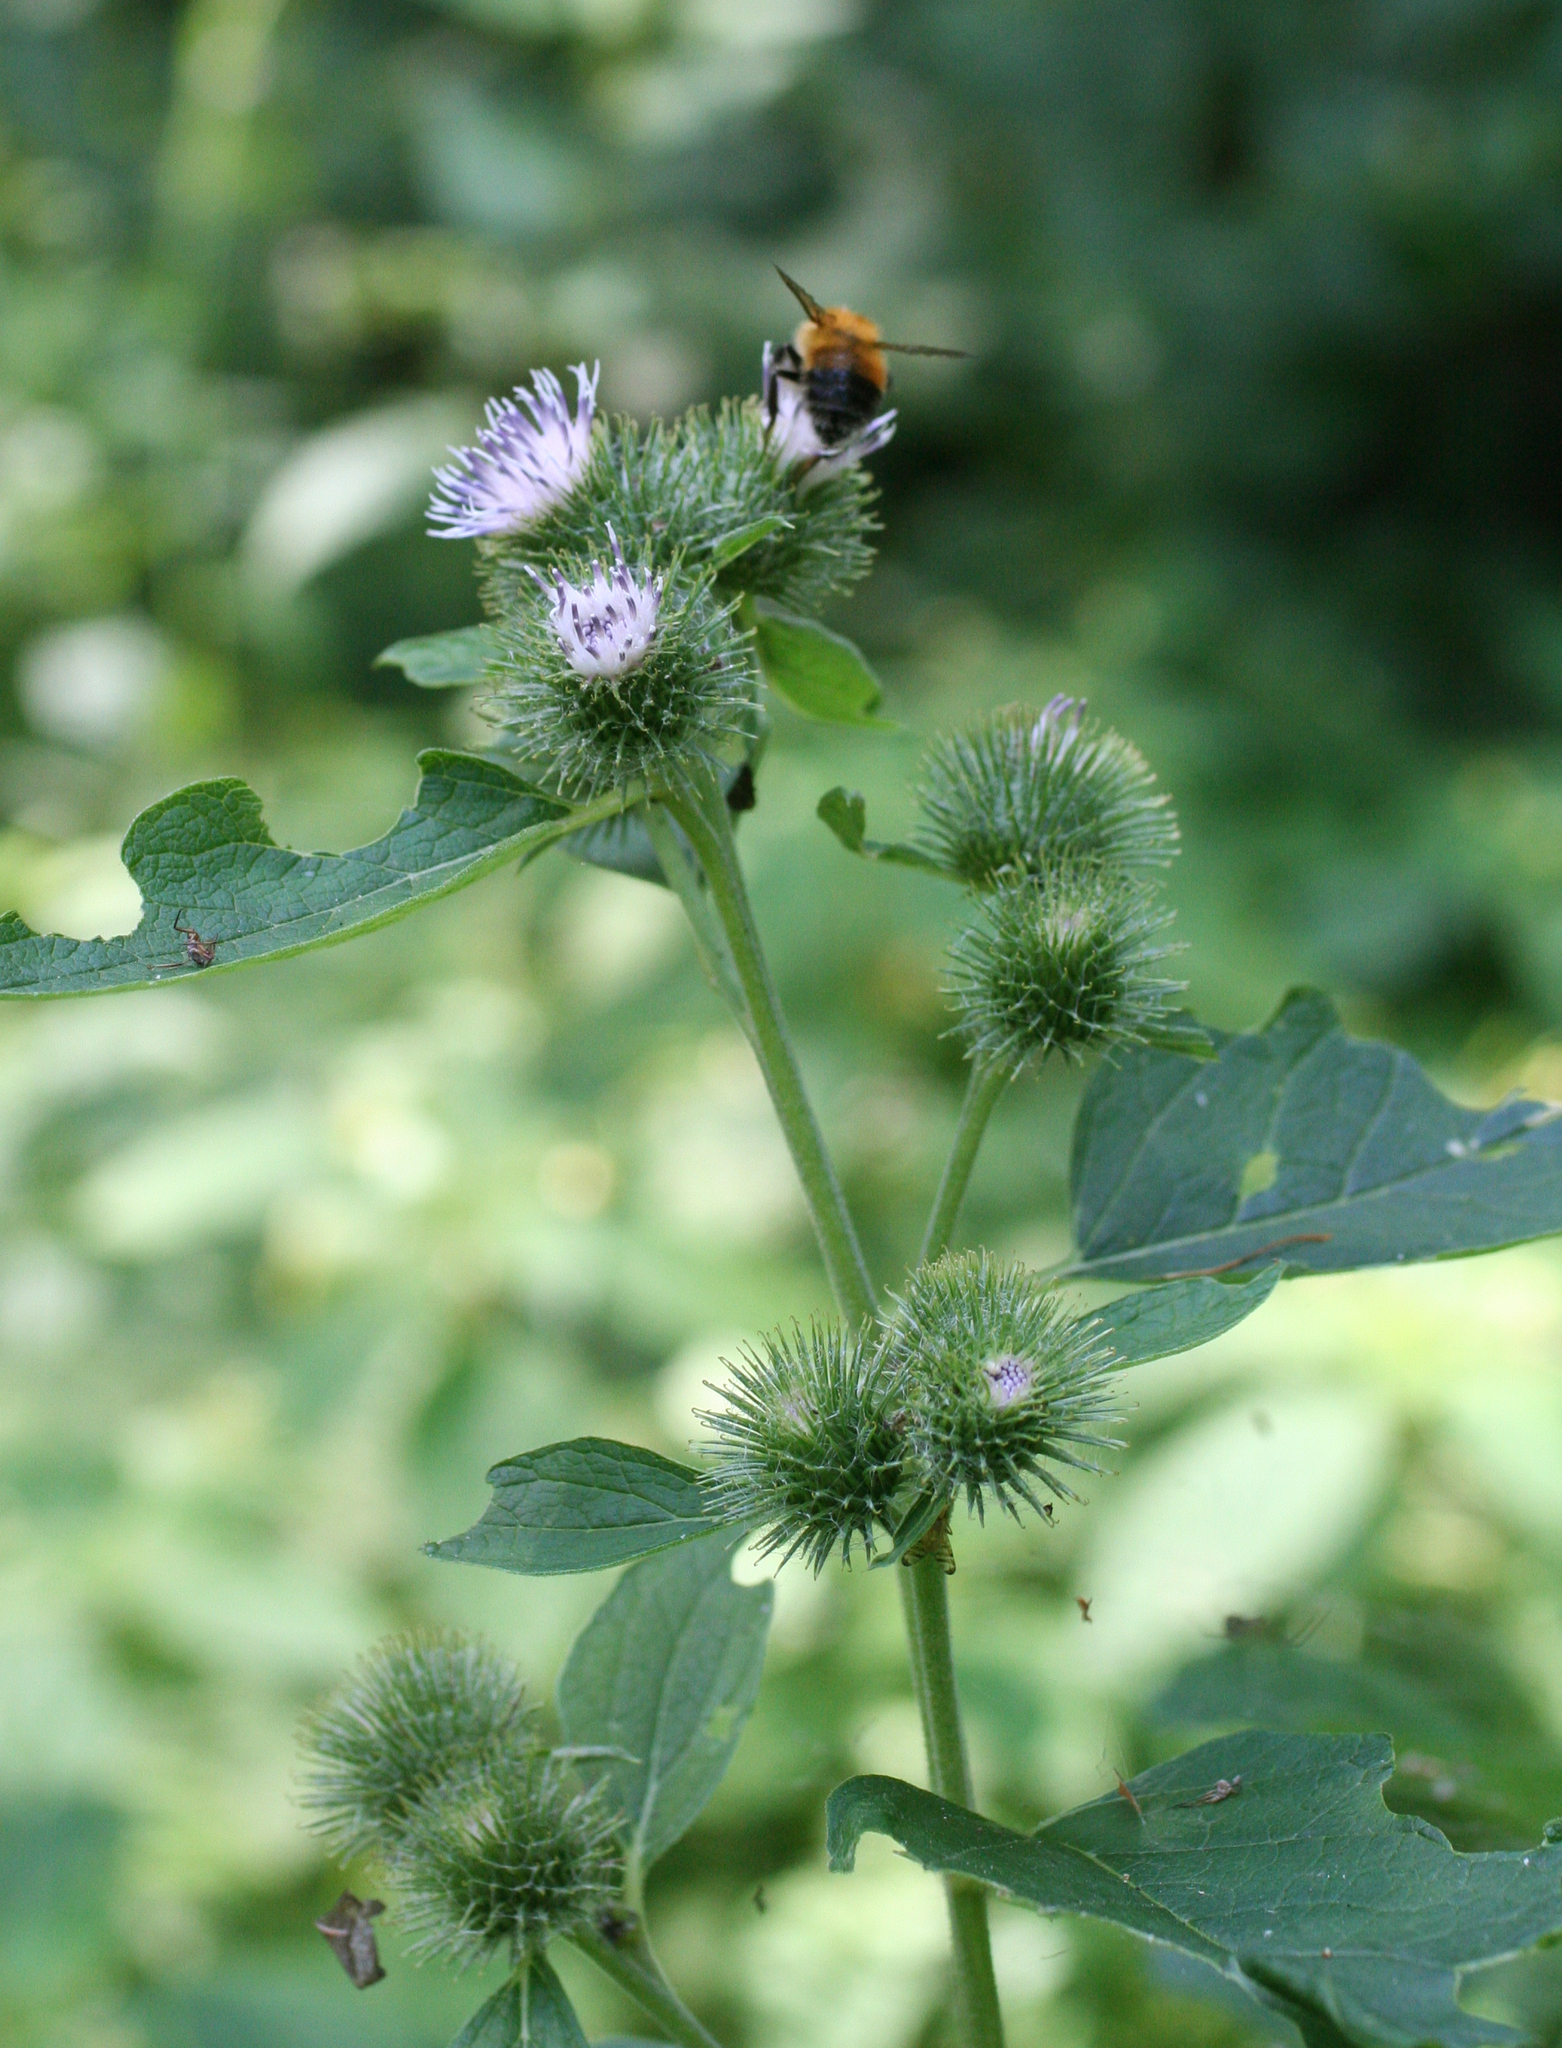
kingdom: Plantae
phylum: Tracheophyta
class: Magnoliopsida
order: Asterales
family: Asteraceae
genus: Arctium
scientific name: Arctium
